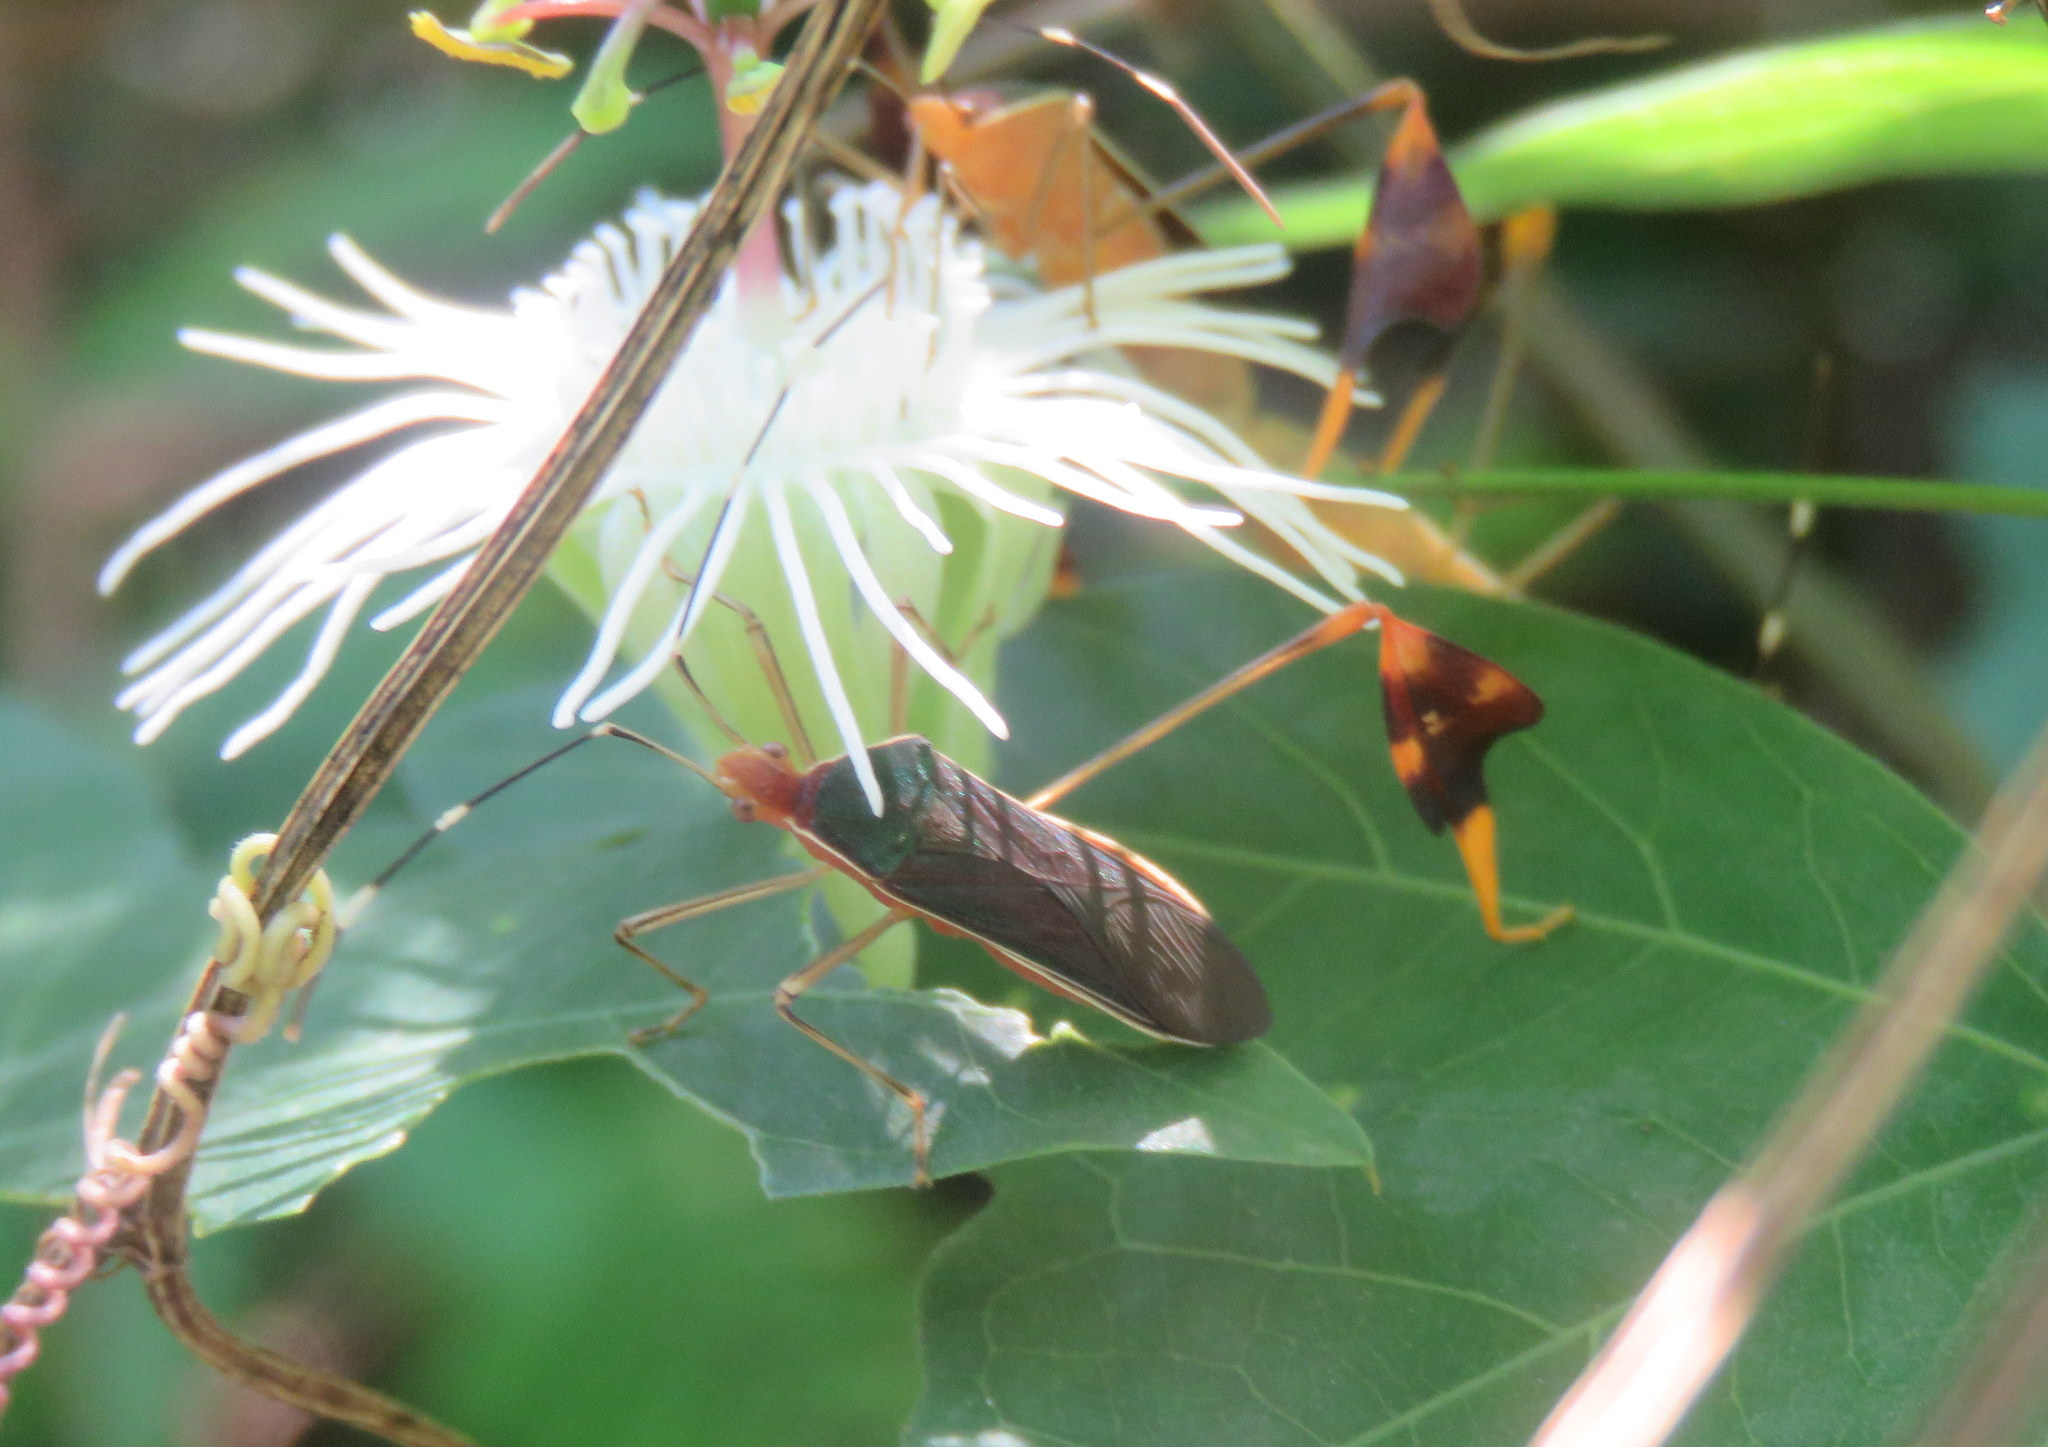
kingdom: Animalia
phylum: Arthropoda
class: Insecta
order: Hemiptera
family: Coreidae
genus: Anisoscelis
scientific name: Anisoscelis foliaceus
